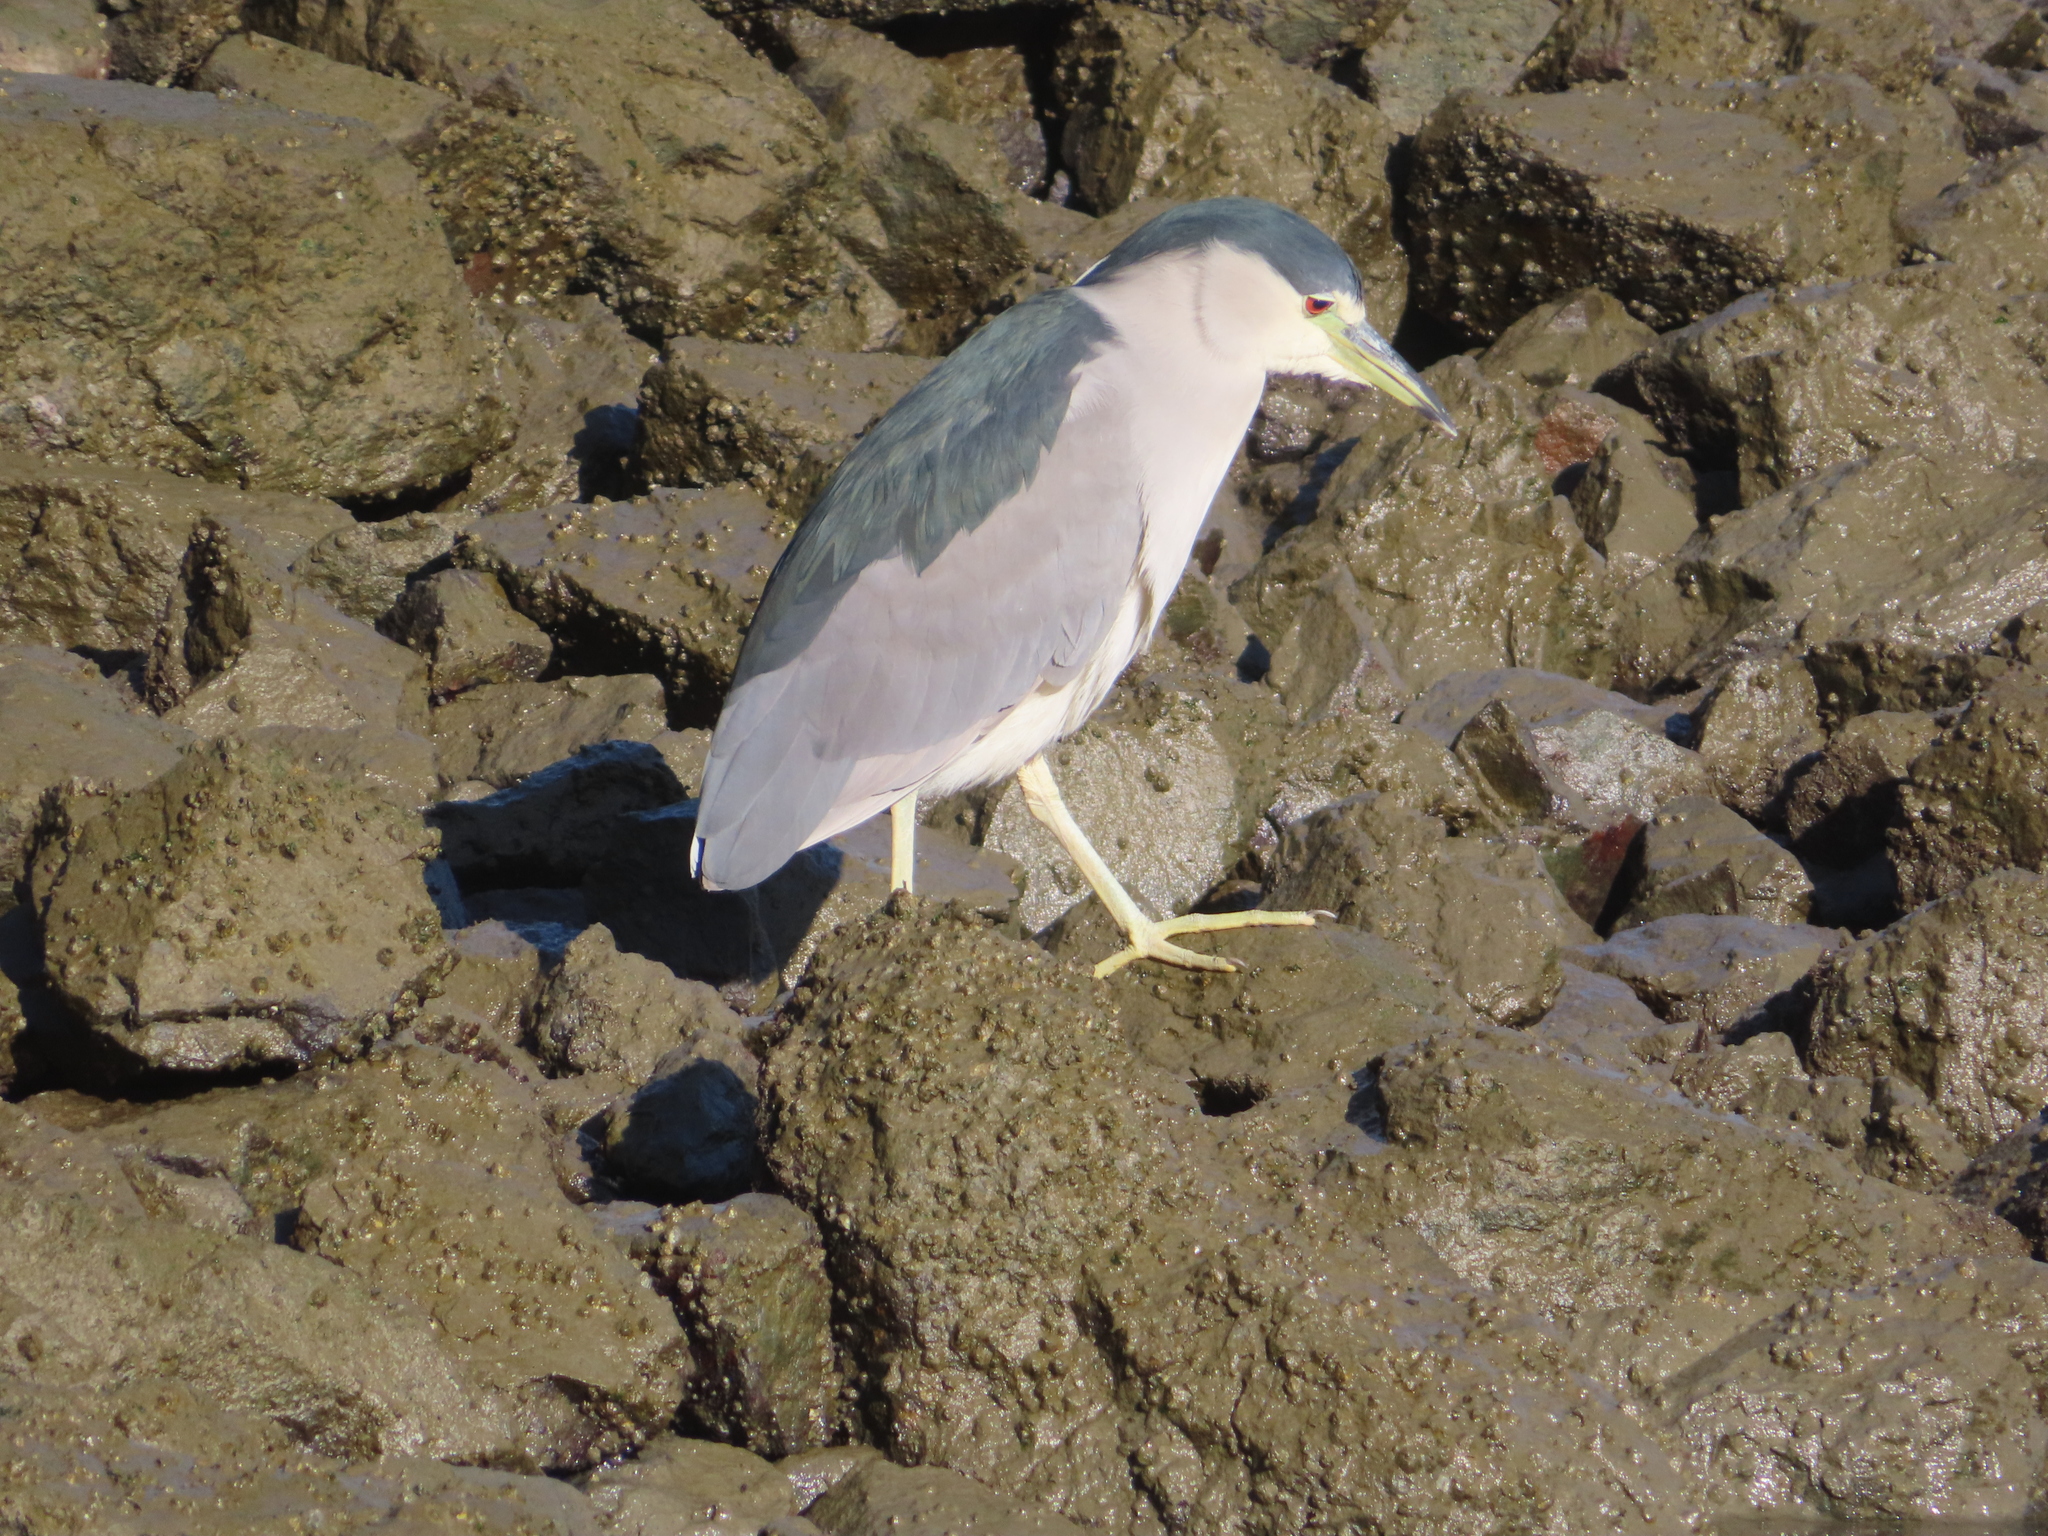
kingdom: Animalia
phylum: Chordata
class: Aves
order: Pelecaniformes
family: Ardeidae
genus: Nycticorax
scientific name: Nycticorax nycticorax
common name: Black-crowned night heron
